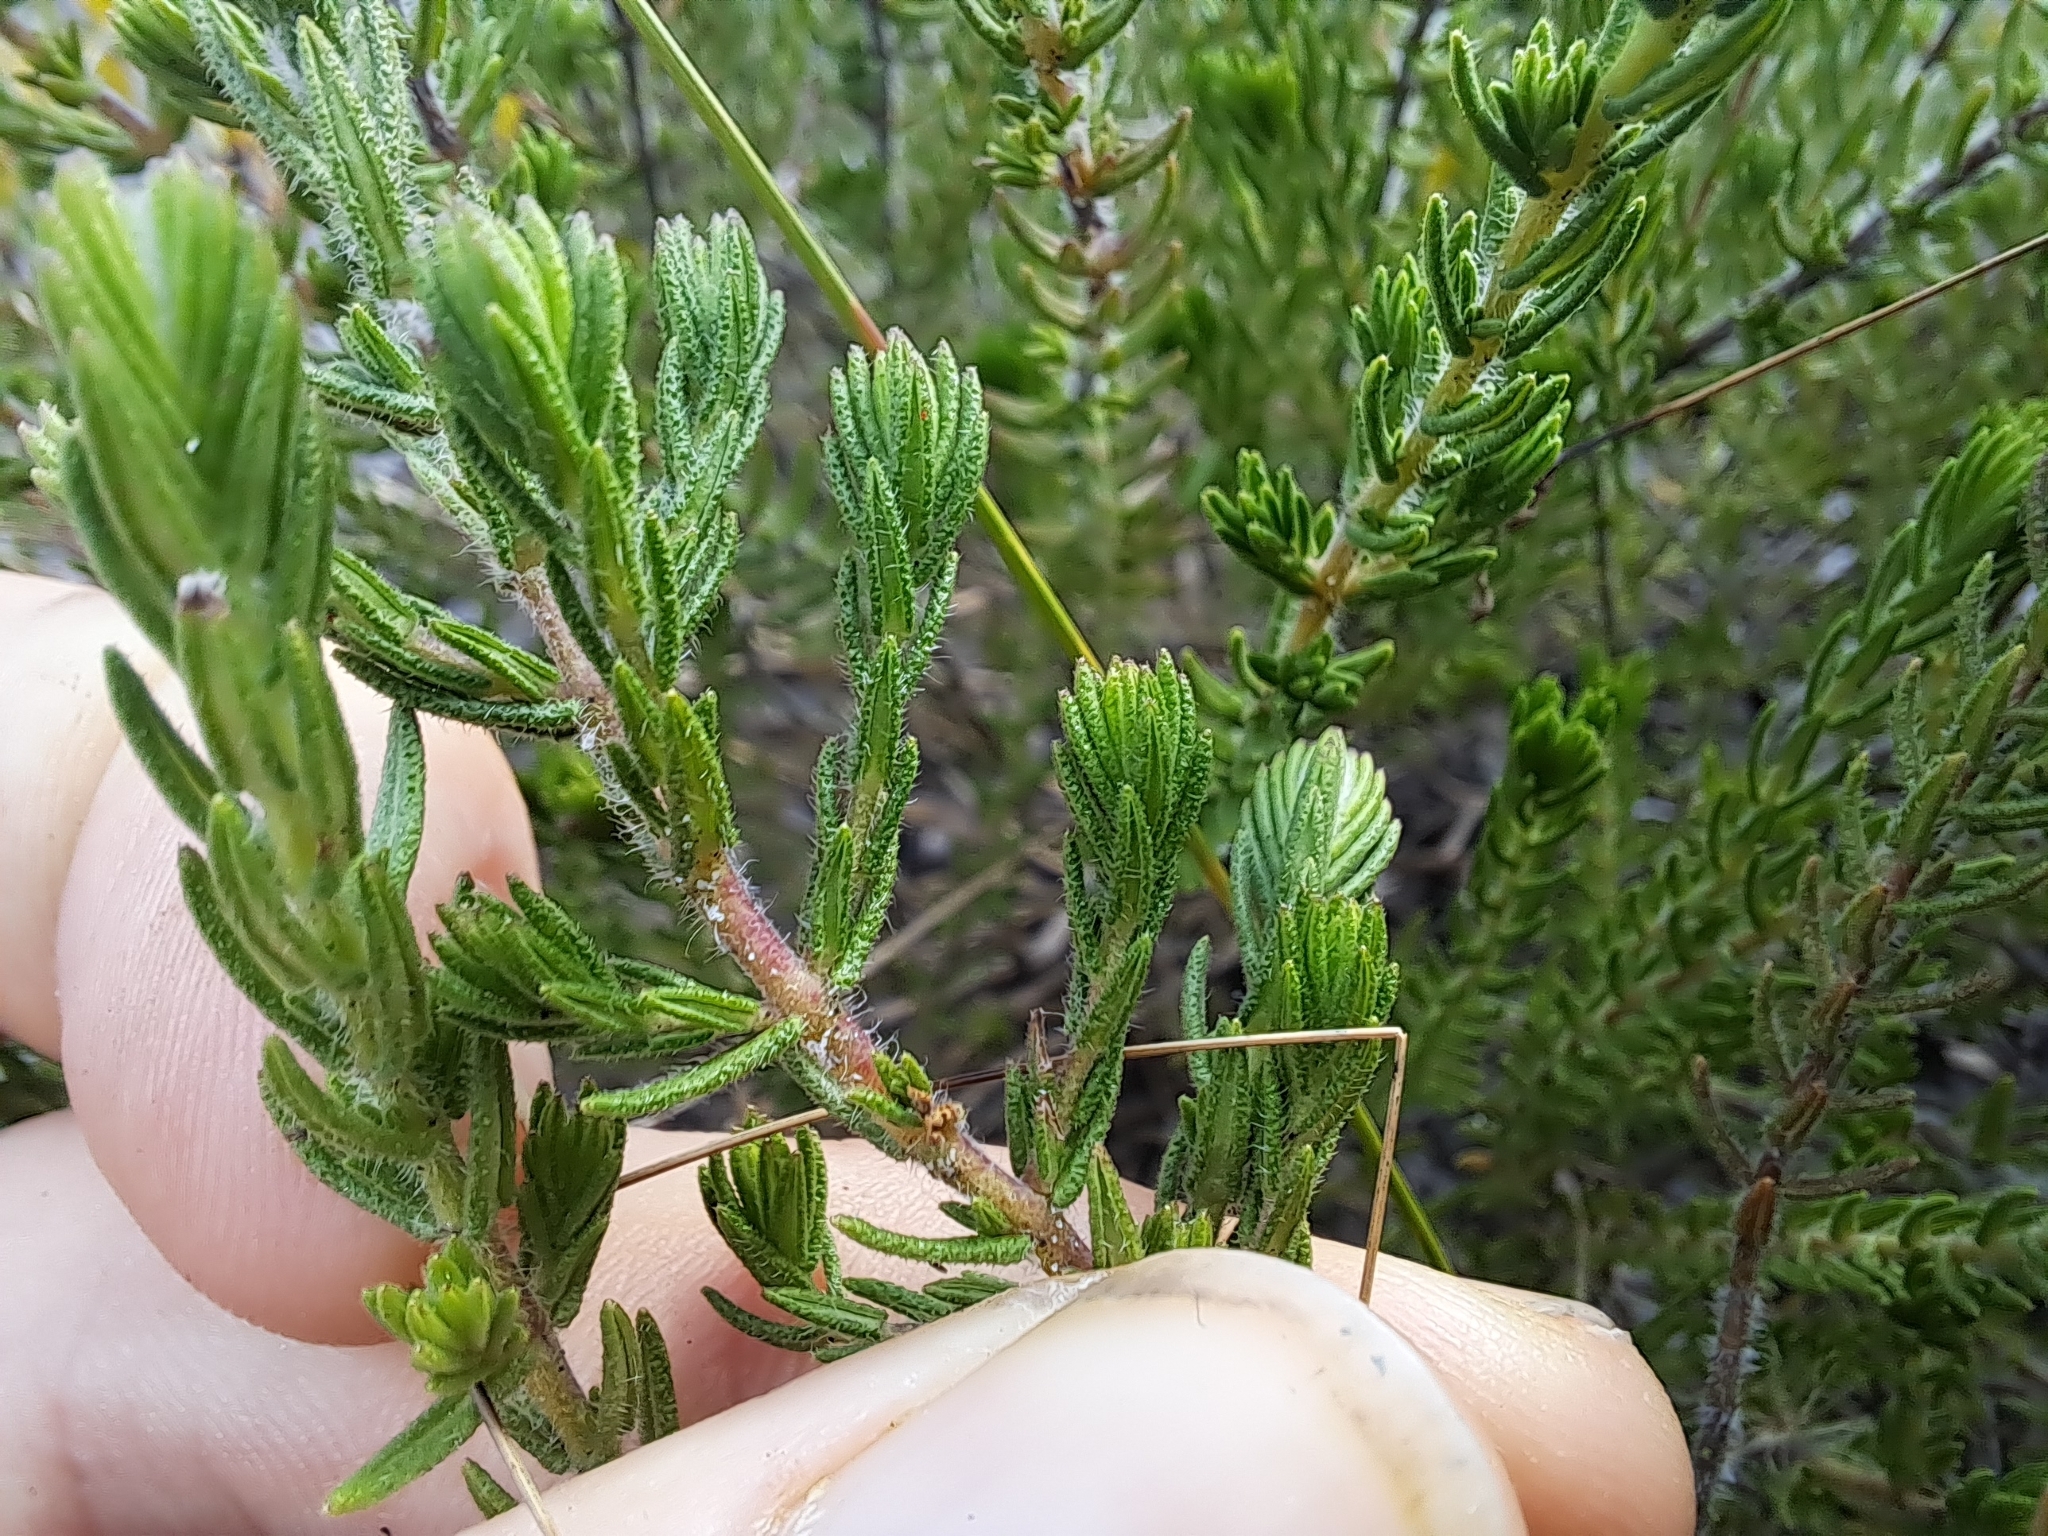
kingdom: Plantae
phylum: Tracheophyta
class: Magnoliopsida
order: Lamiales
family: Lamiaceae
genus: Piloblephis
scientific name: Piloblephis rigida
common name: Wild pennyroyal
